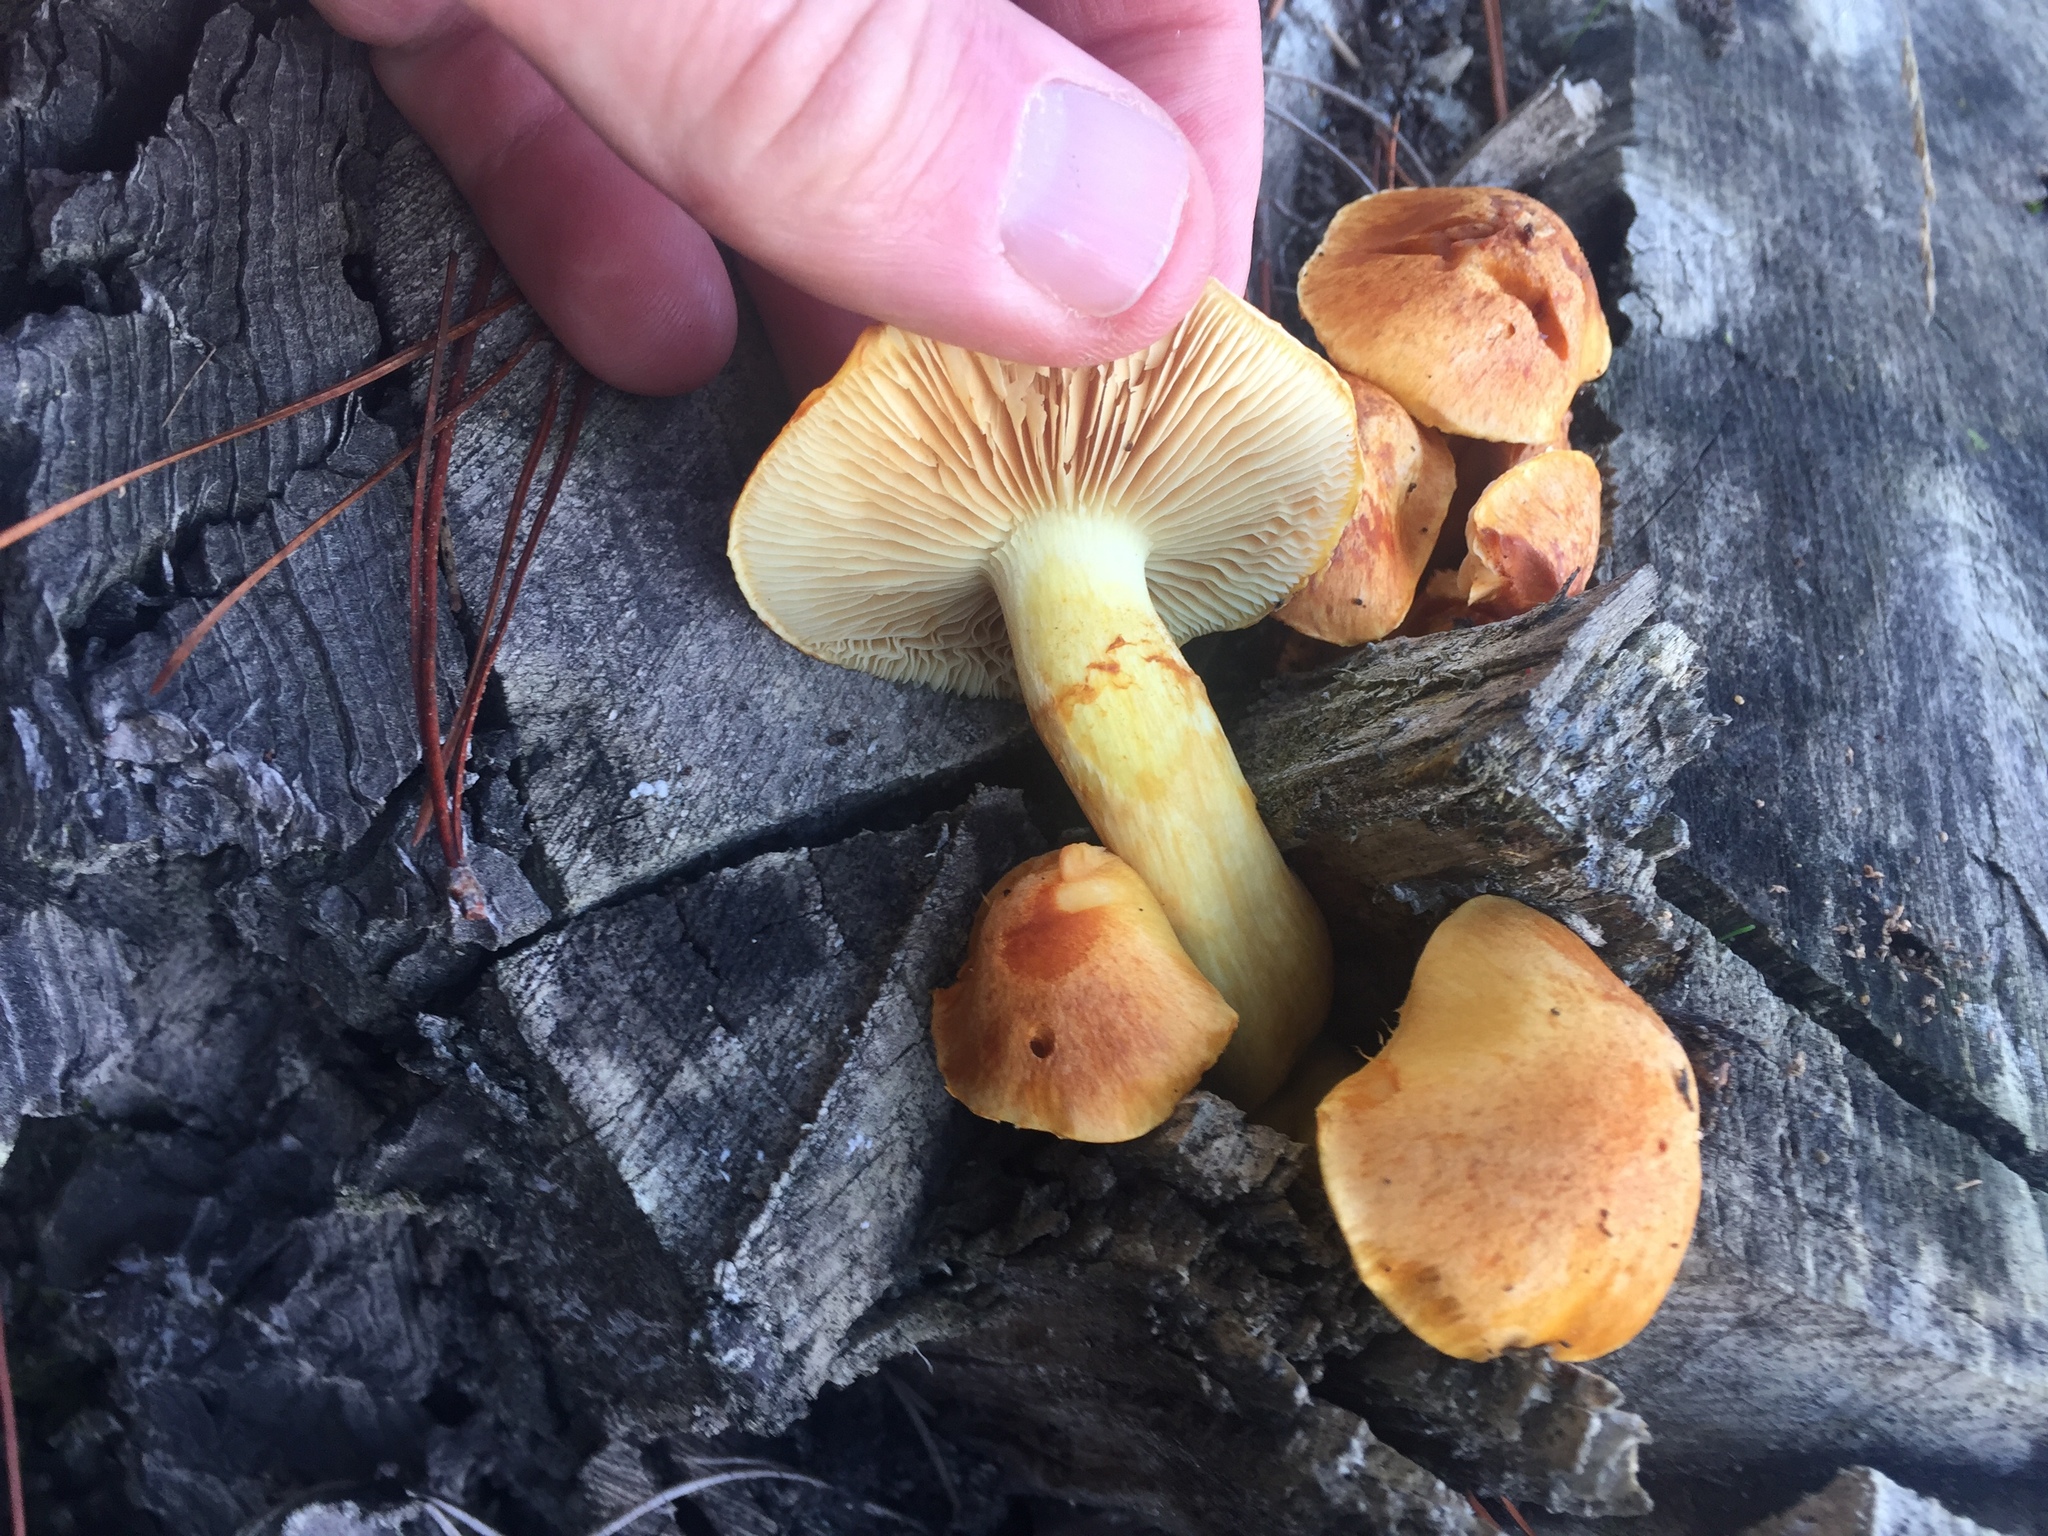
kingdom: Fungi
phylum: Basidiomycota
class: Agaricomycetes
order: Agaricales
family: Hymenogastraceae
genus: Gymnopilus
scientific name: Gymnopilus junonius
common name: Spectacular rustgill
